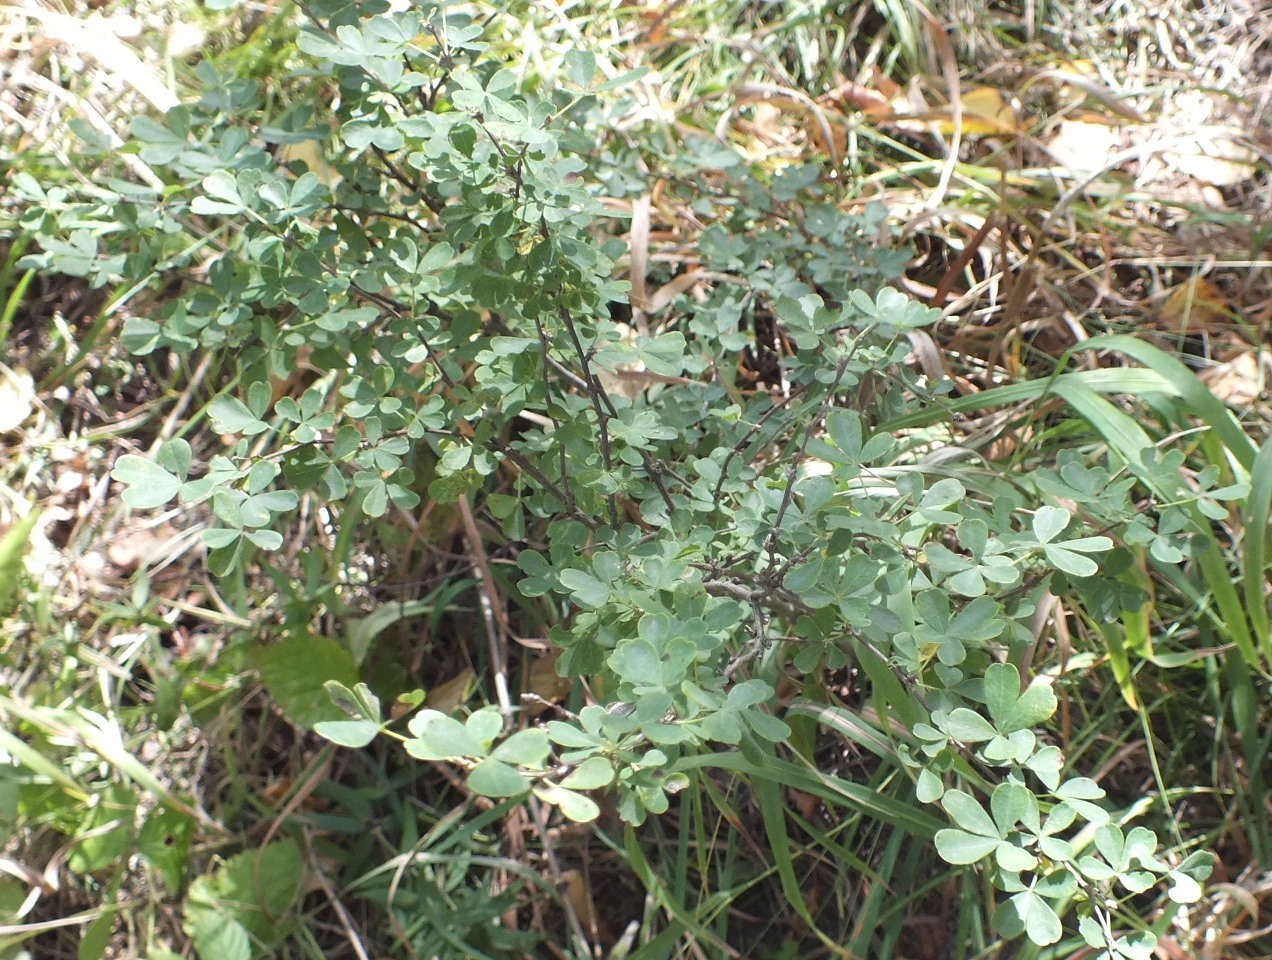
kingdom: Plantae
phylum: Tracheophyta
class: Magnoliopsida
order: Fabales
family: Fabaceae
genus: Caragana
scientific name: Caragana frutex
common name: Russian peashrub
